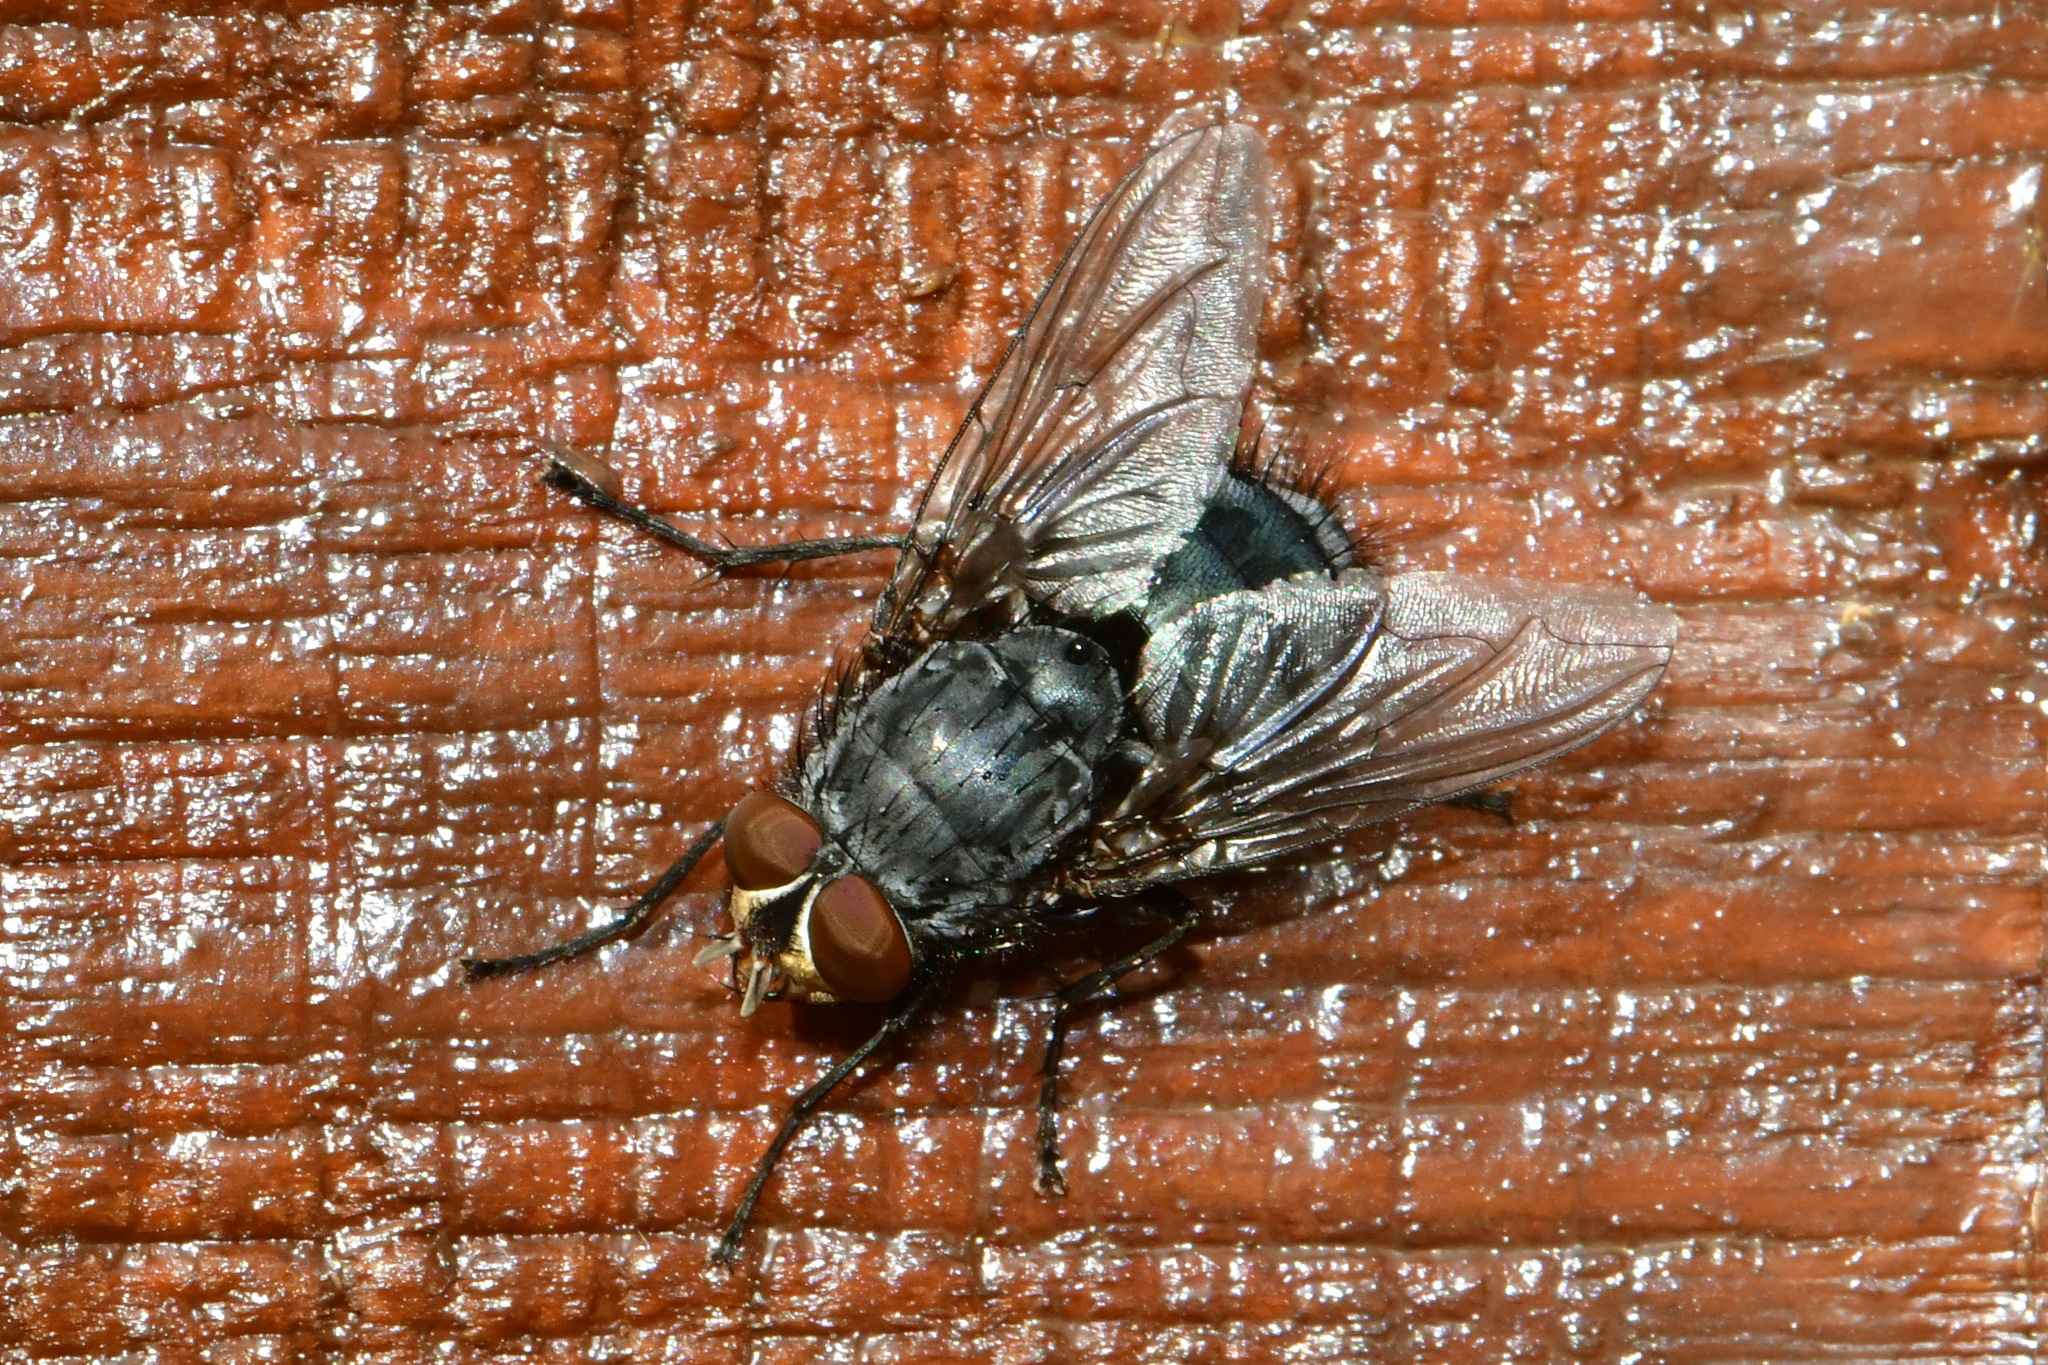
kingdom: Animalia
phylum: Arthropoda
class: Insecta
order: Diptera
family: Calliphoridae
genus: Calliphora
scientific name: Calliphora vicina
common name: Common blow flie
